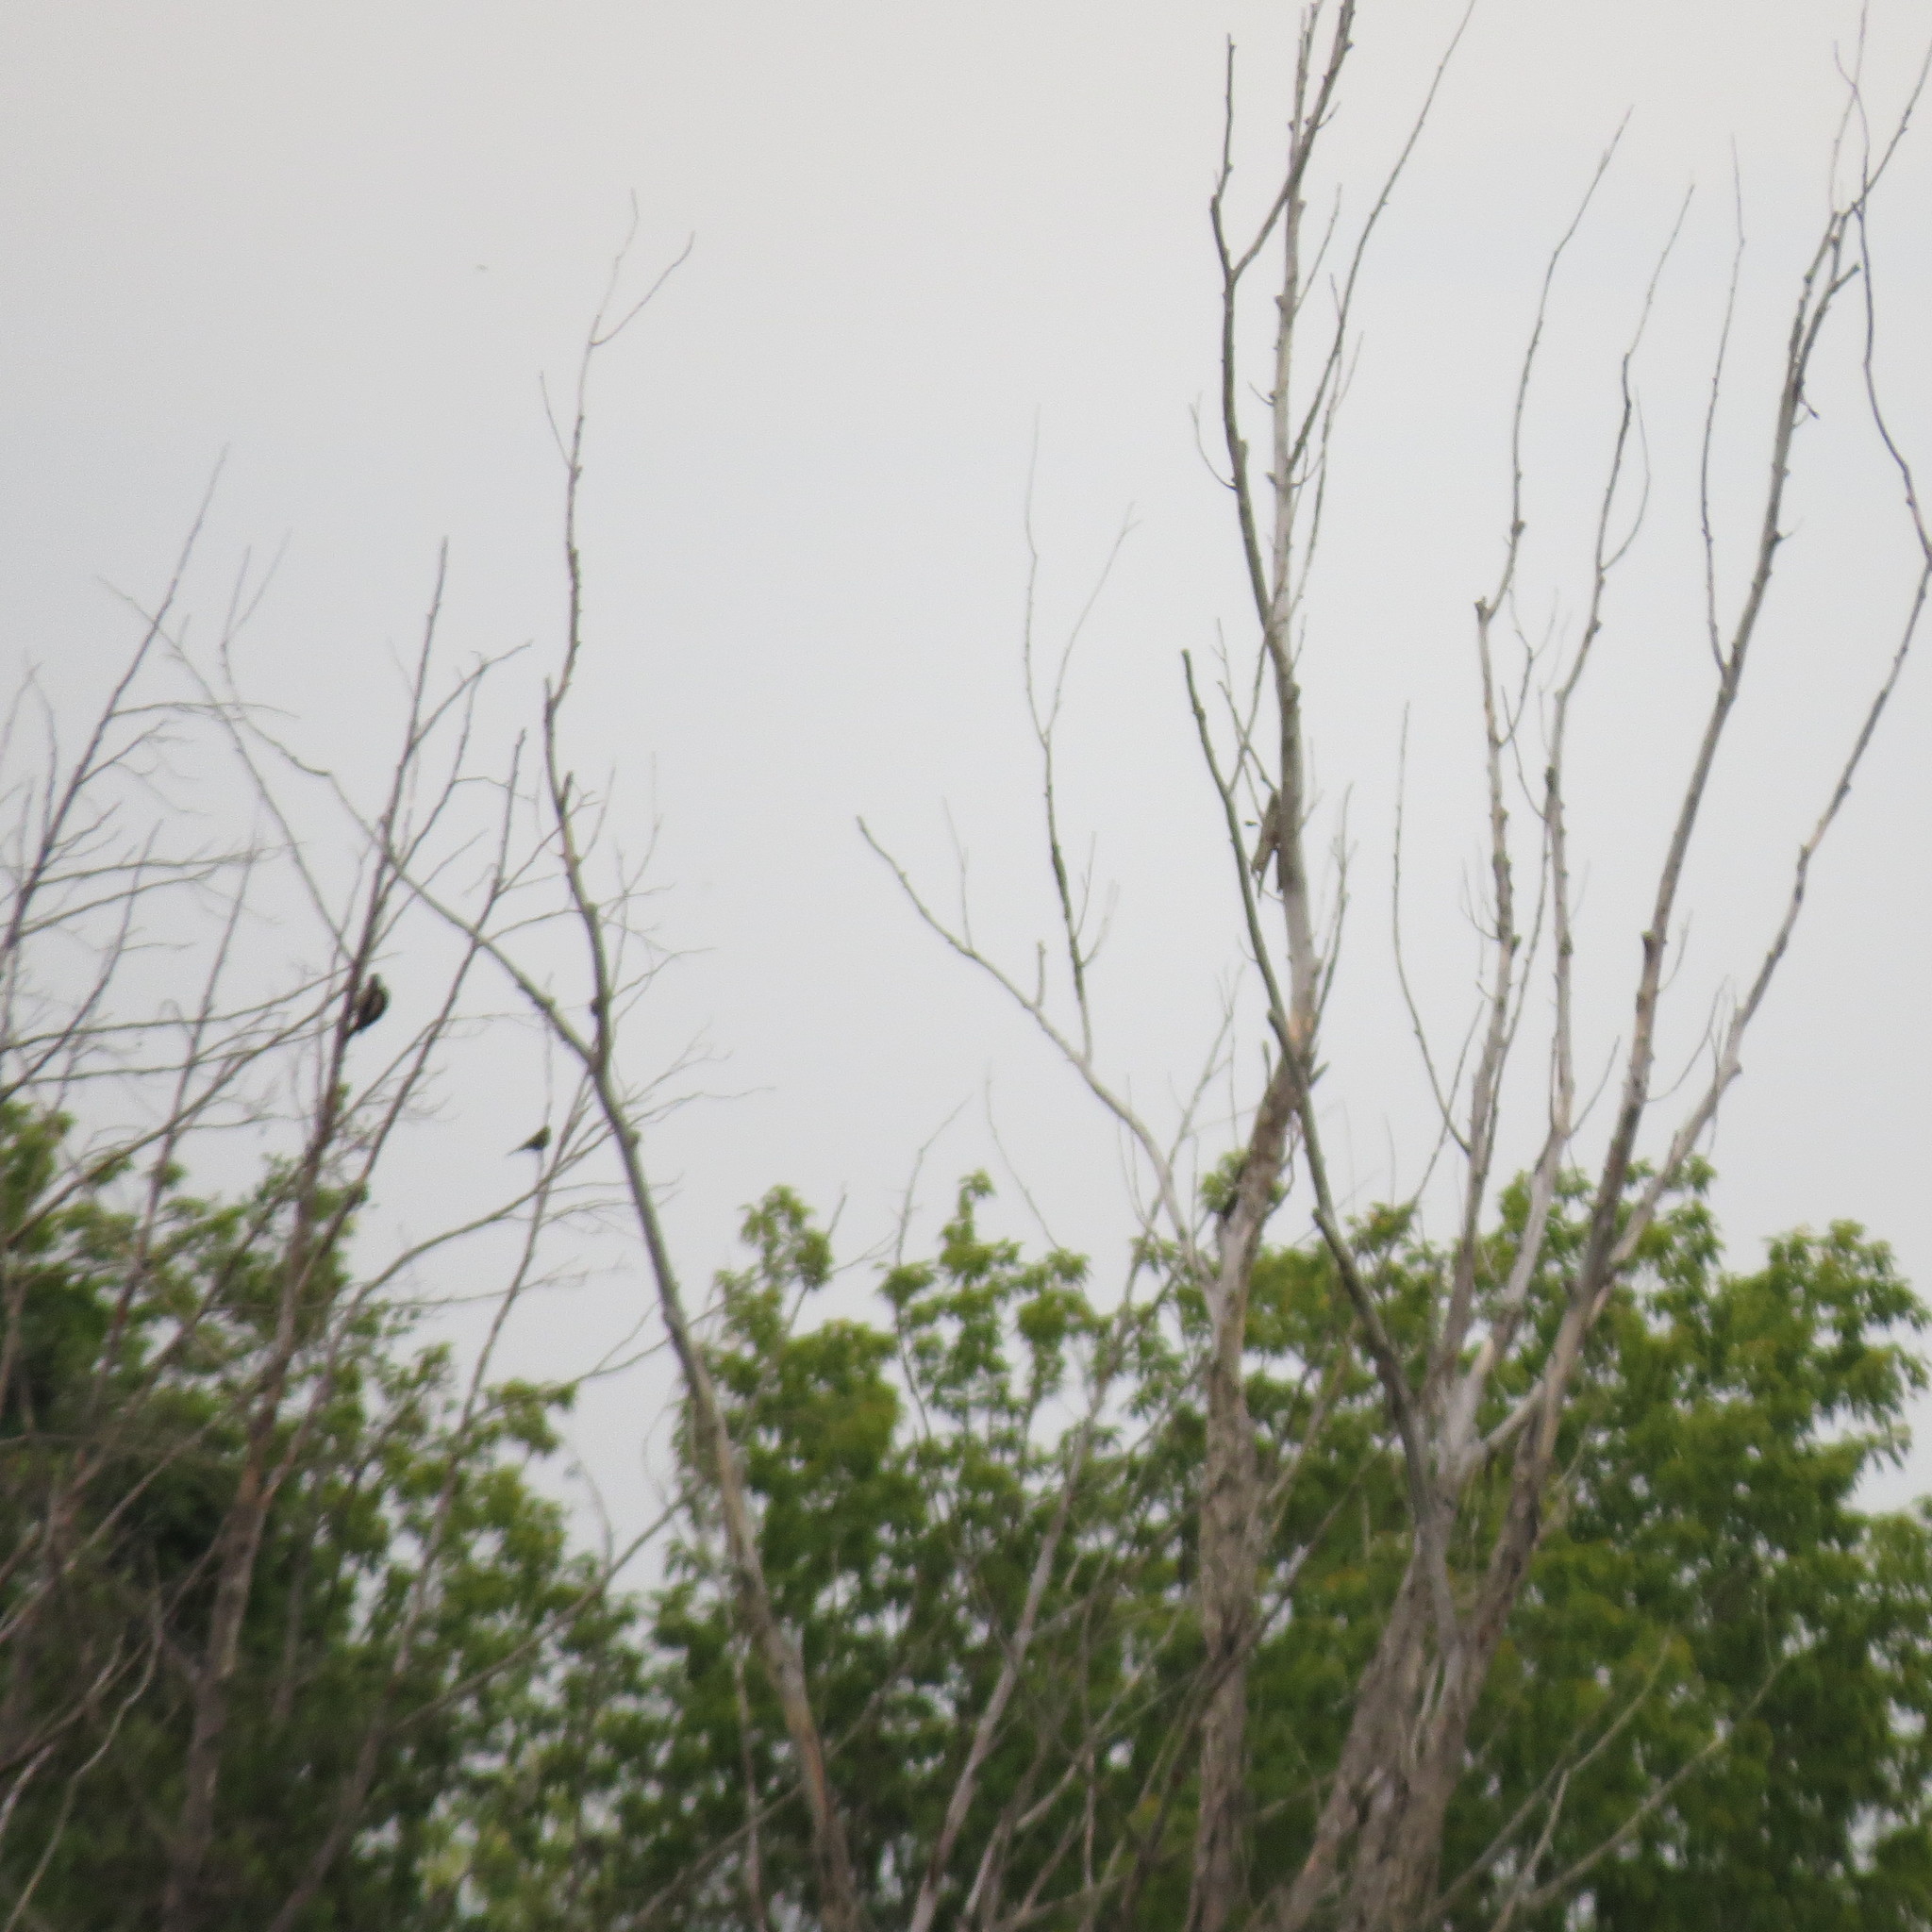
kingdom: Animalia
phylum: Chordata
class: Aves
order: Piciformes
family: Picidae
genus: Dendrocopos
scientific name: Dendrocopos major
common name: Great spotted woodpecker
